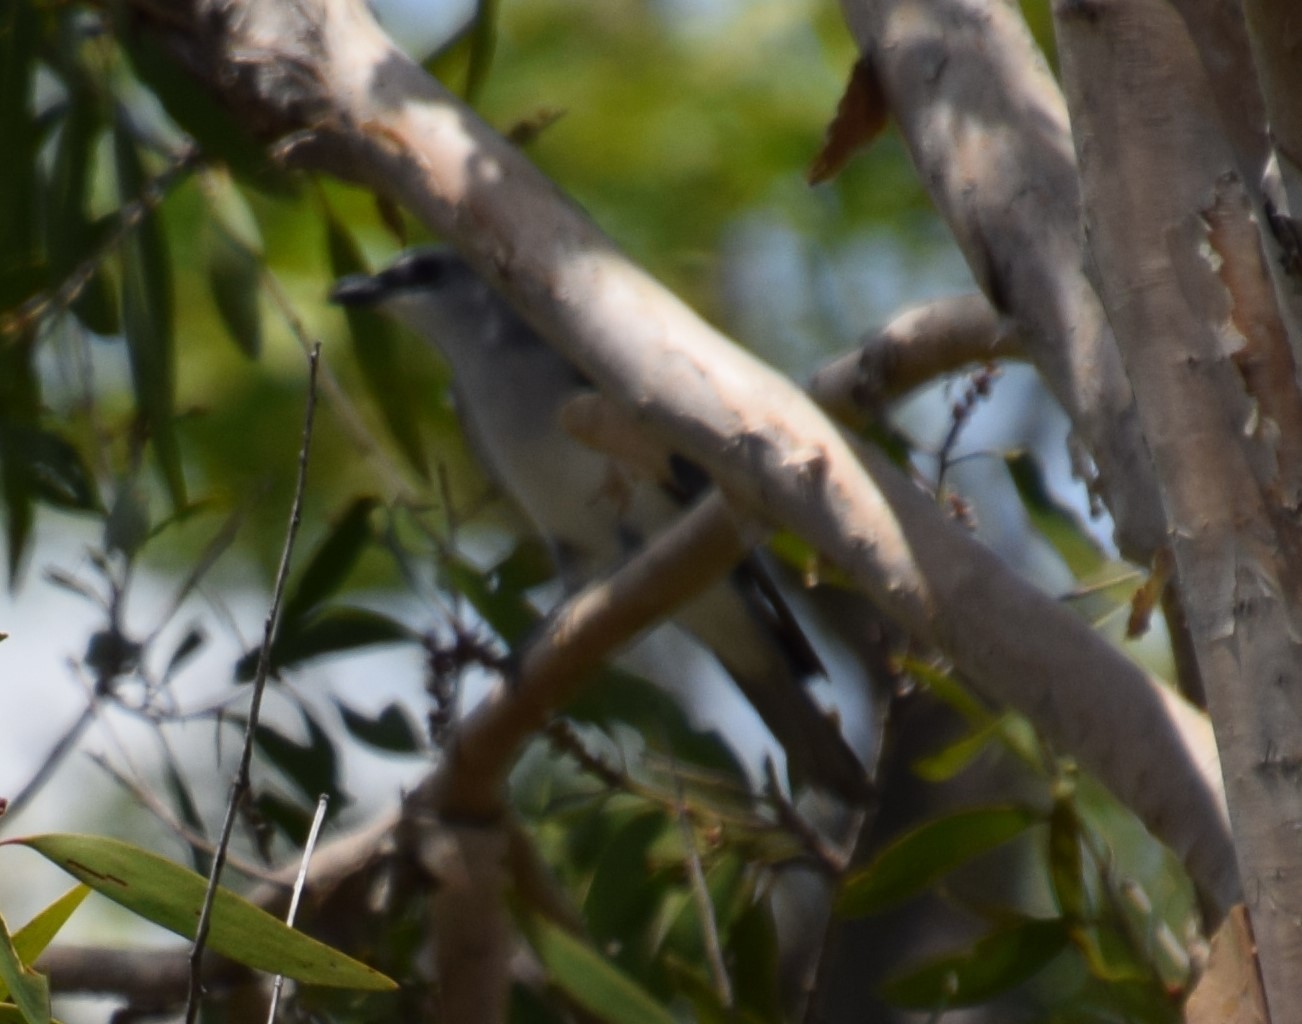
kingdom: Animalia
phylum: Chordata
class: Aves
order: Passeriformes
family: Campephagidae
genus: Coracina
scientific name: Coracina papuensis
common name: White-bellied cuckooshrike
